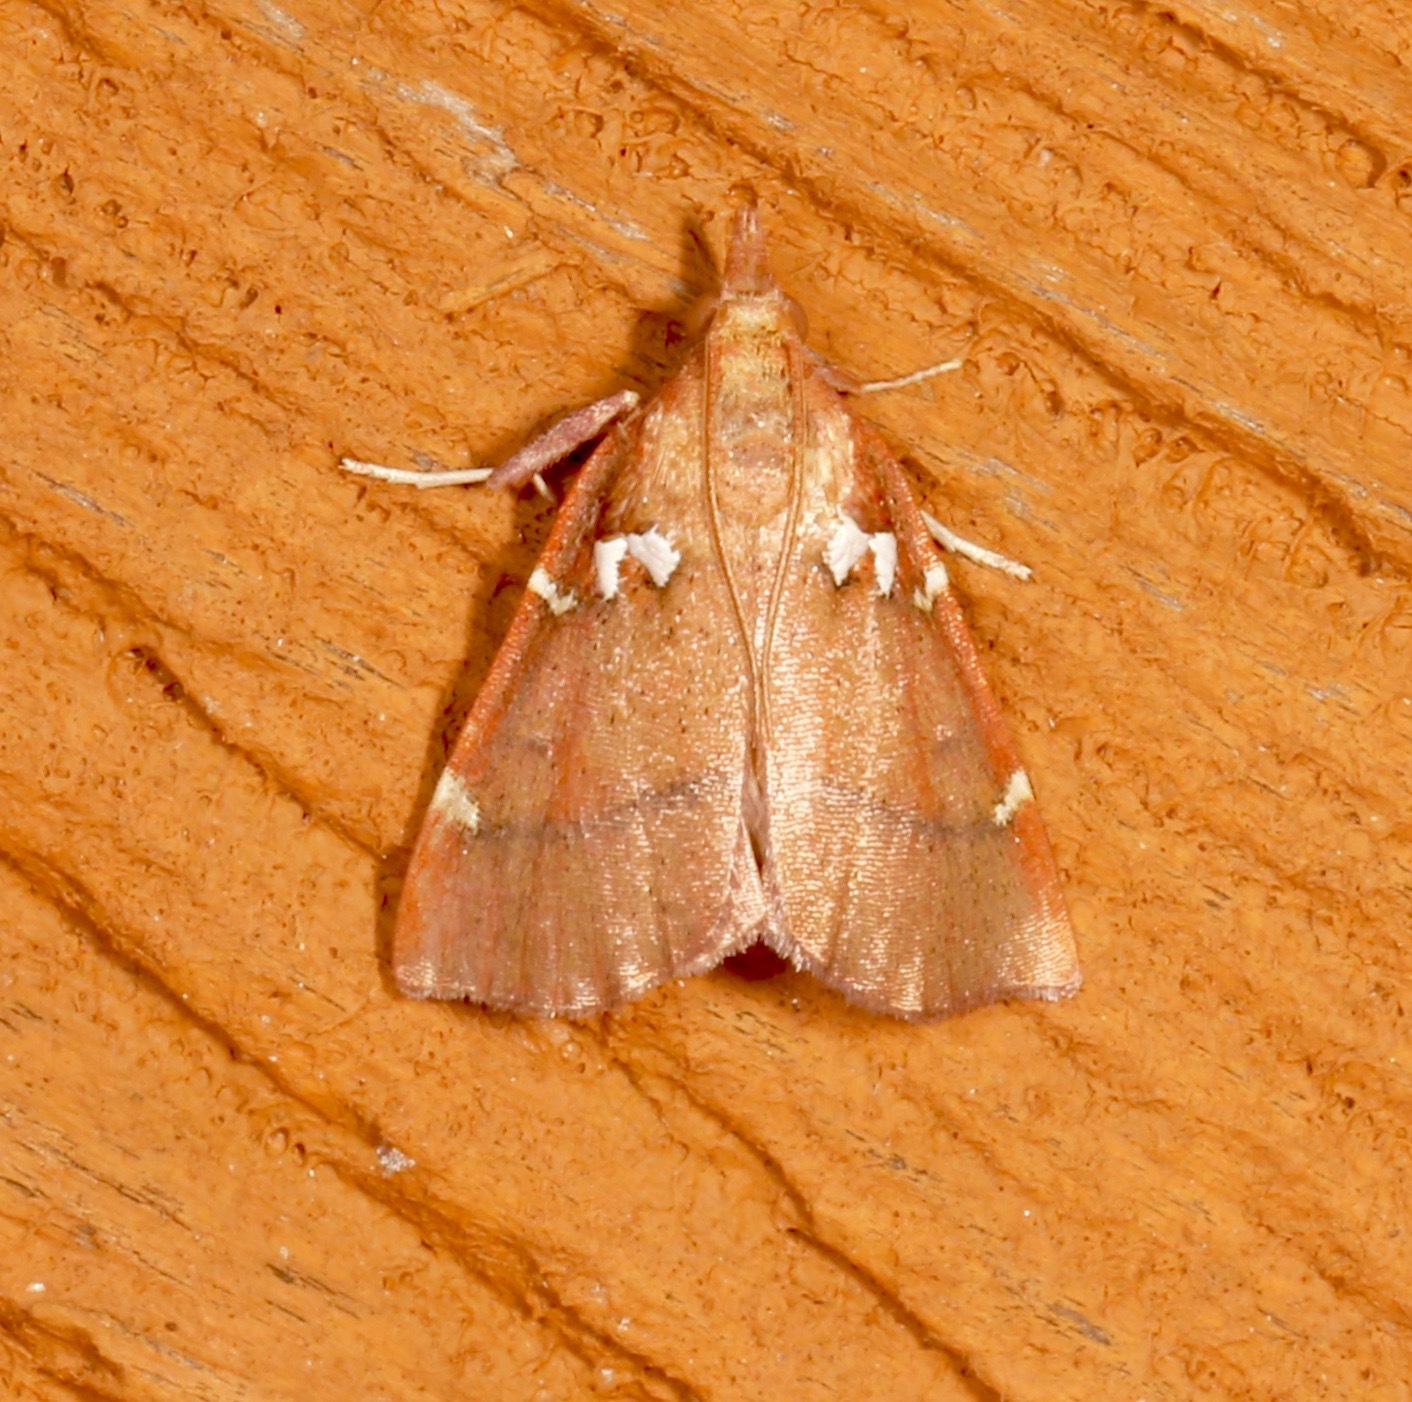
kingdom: Animalia
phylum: Arthropoda
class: Insecta
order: Lepidoptera
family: Pyralidae
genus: Lepidomys
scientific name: Lepidomys irrenosa
